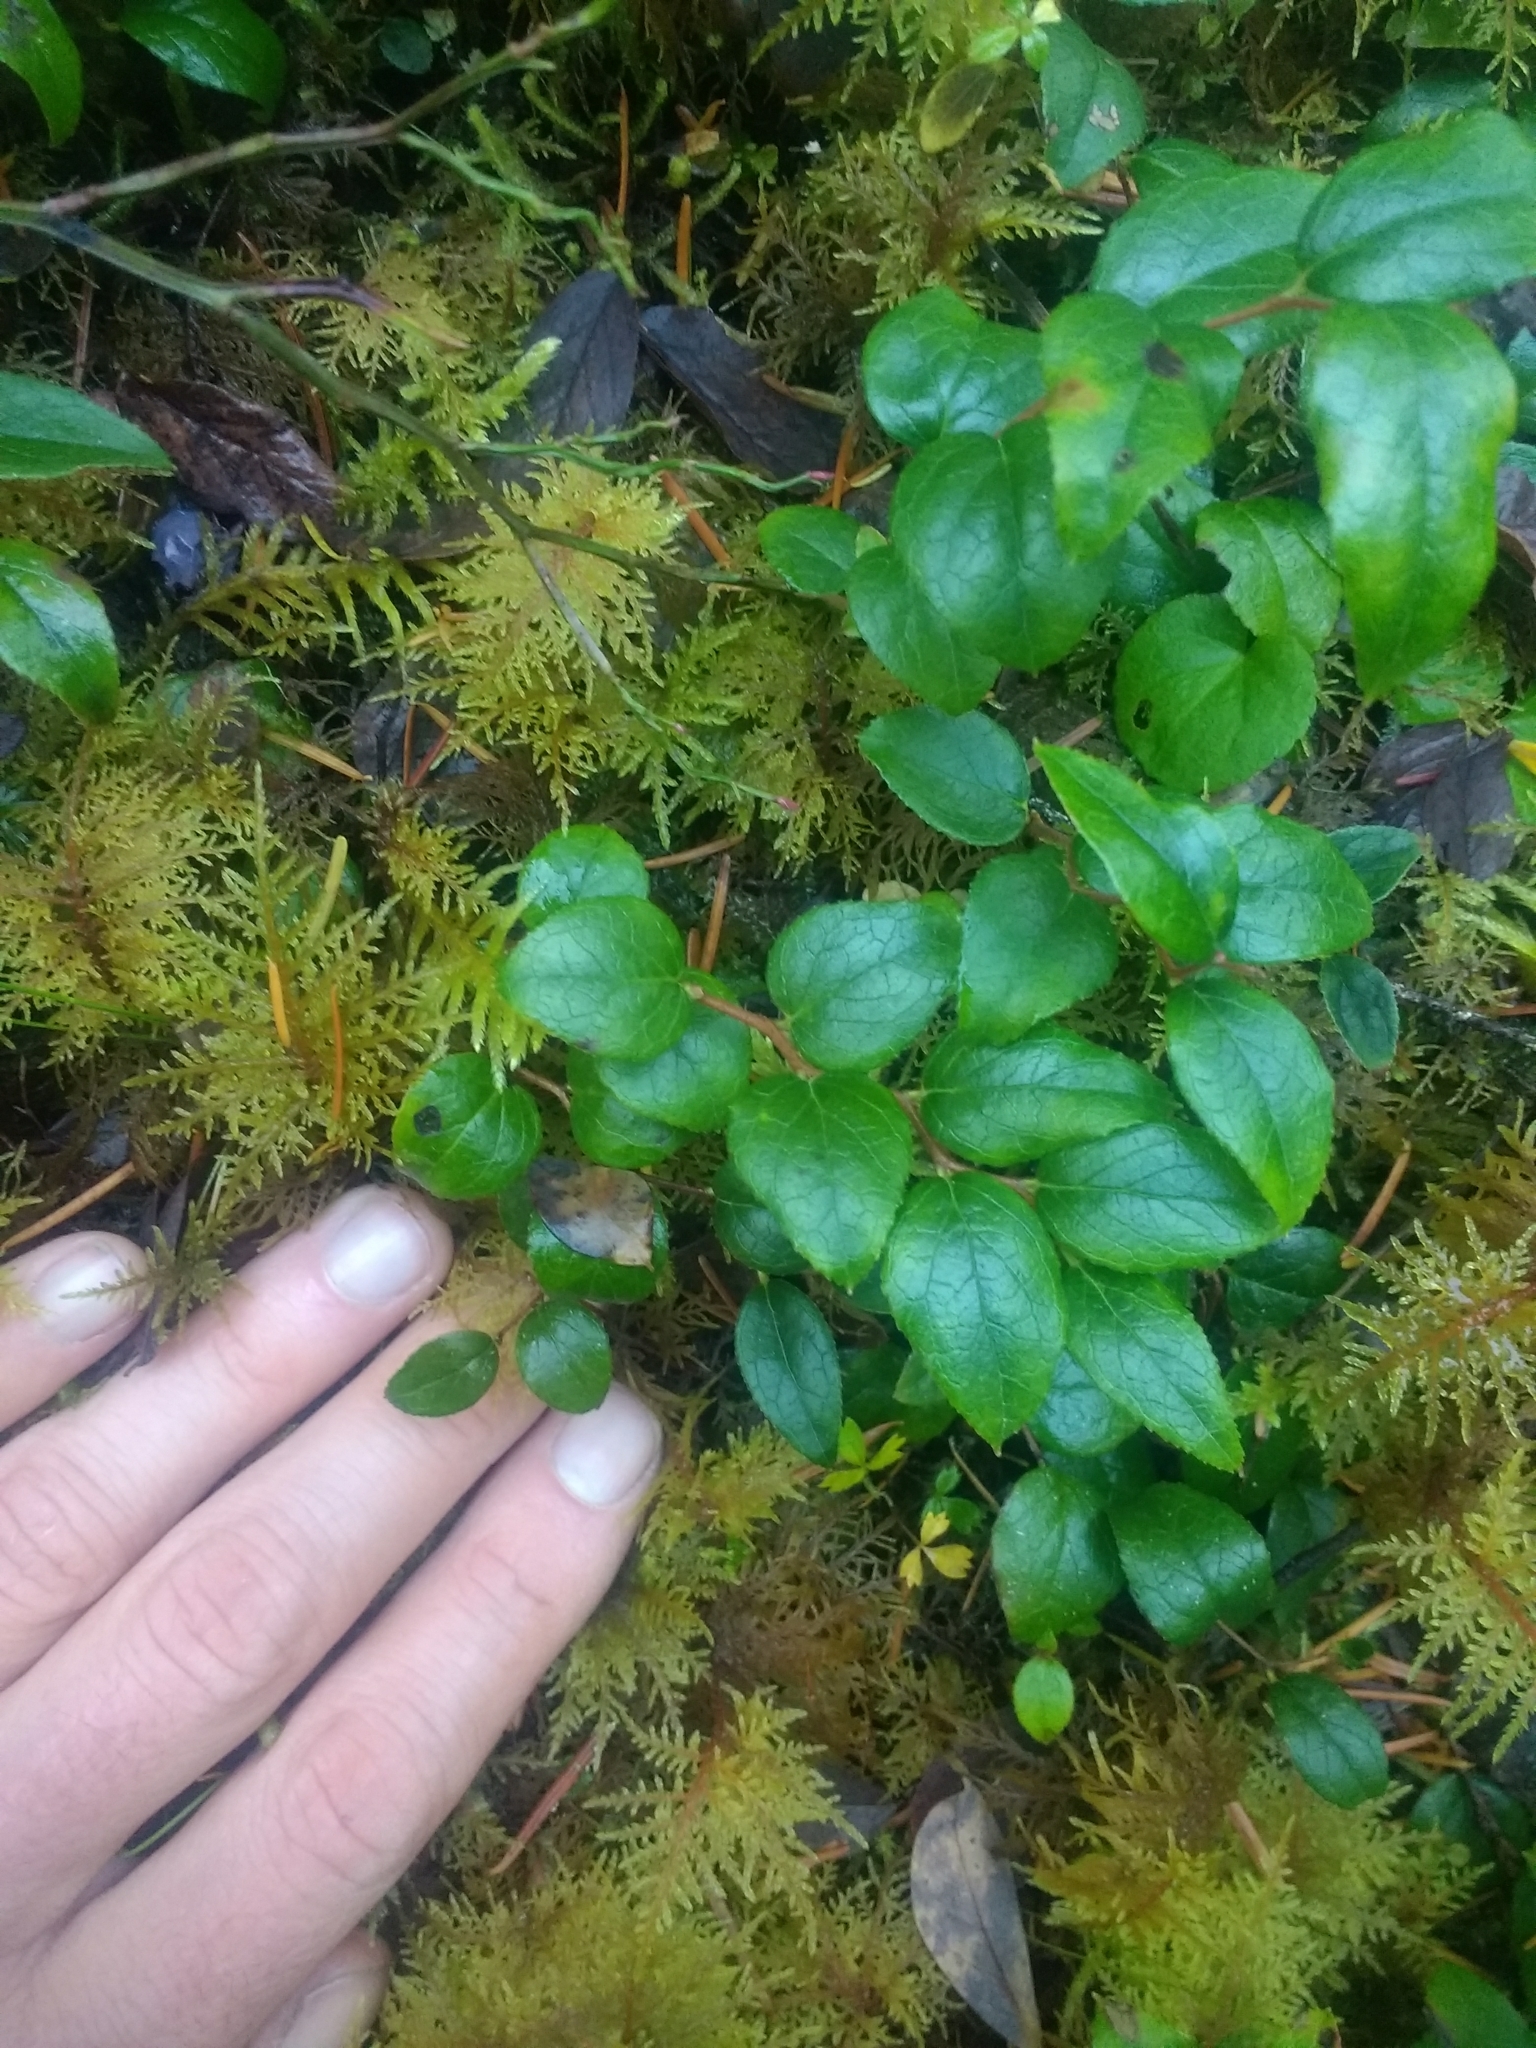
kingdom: Plantae
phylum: Tracheophyta
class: Magnoliopsida
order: Ericales
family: Ericaceae
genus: Gaultheria
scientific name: Gaultheria ovatifolia
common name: Oregon wintergreen
